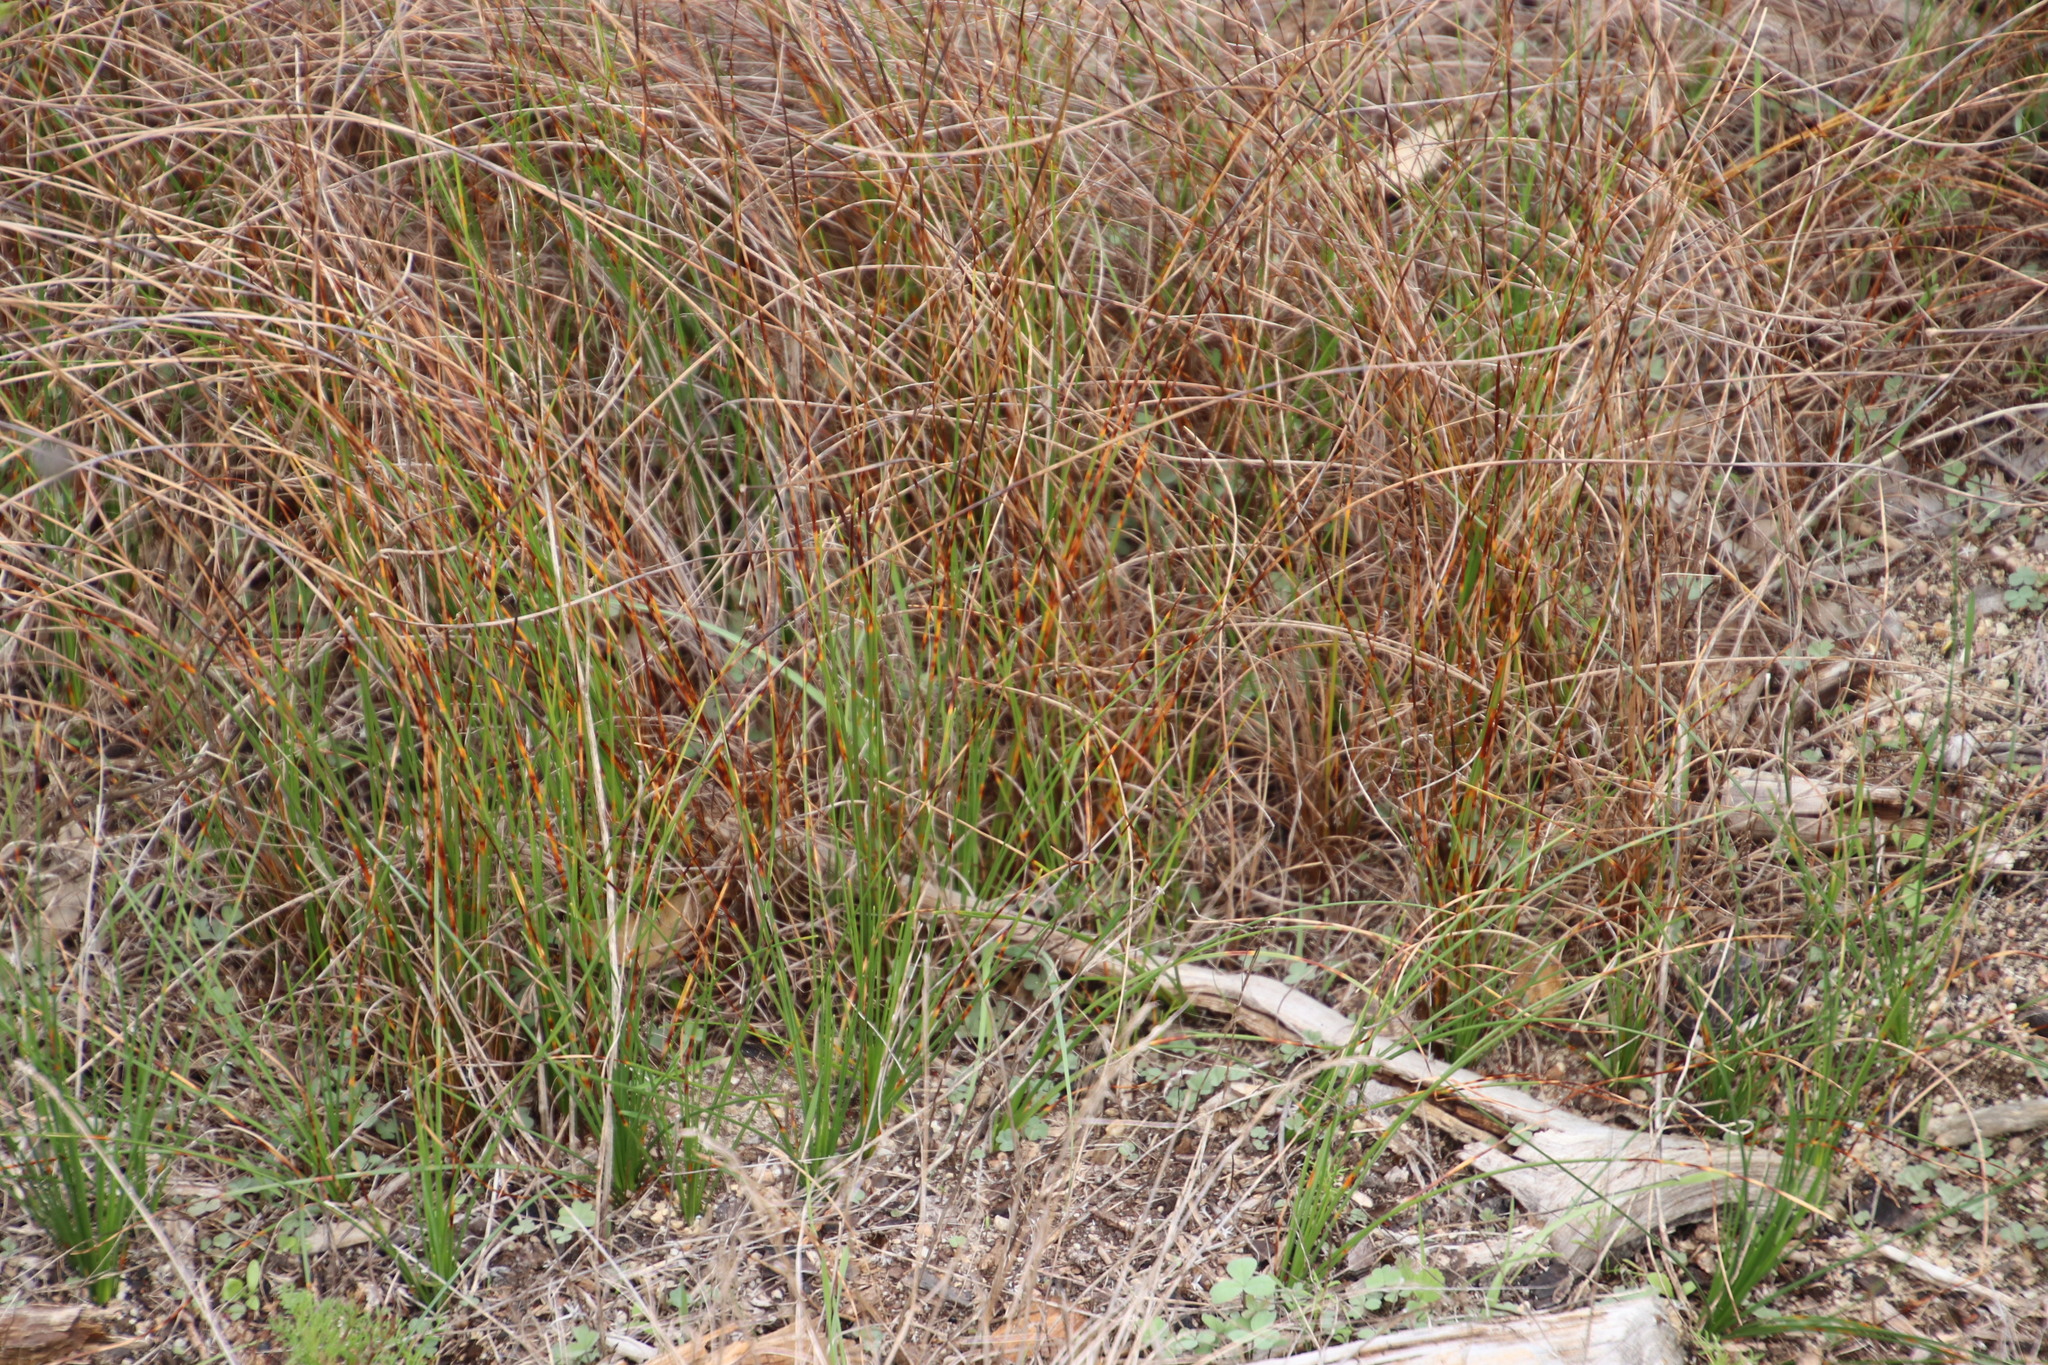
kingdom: Plantae
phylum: Tracheophyta
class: Liliopsida
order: Poales
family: Cyperaceae
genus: Ficinia
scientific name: Ficinia indica
